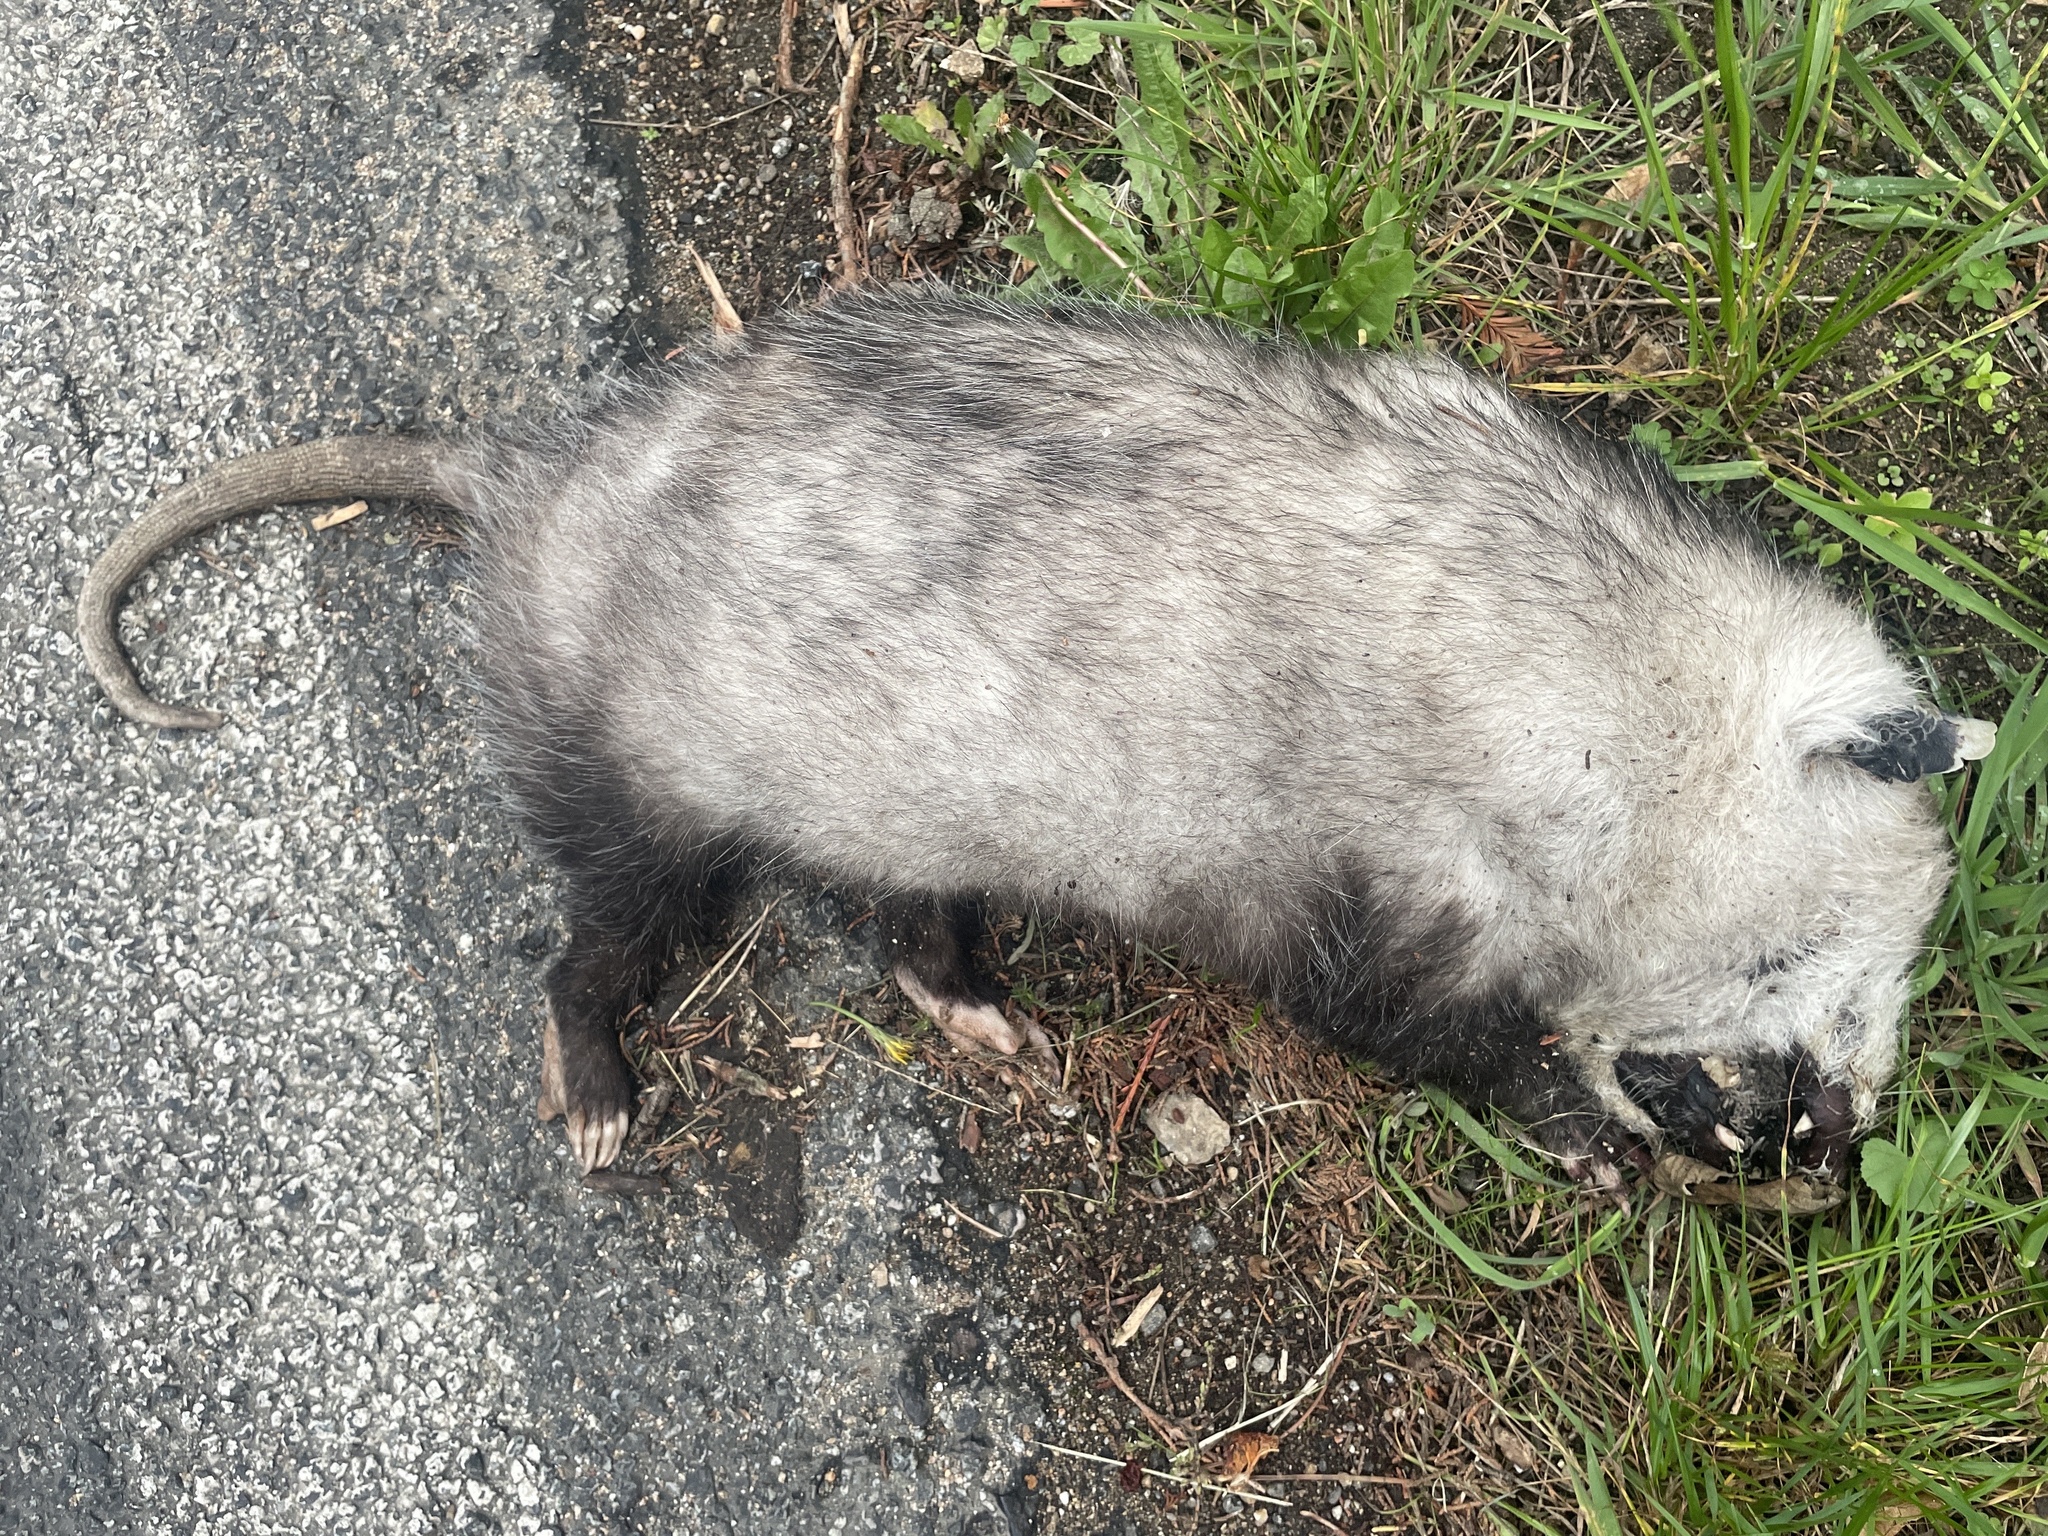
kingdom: Animalia
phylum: Chordata
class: Mammalia
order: Didelphimorphia
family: Didelphidae
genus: Didelphis
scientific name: Didelphis virginiana
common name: Virginia opossum
